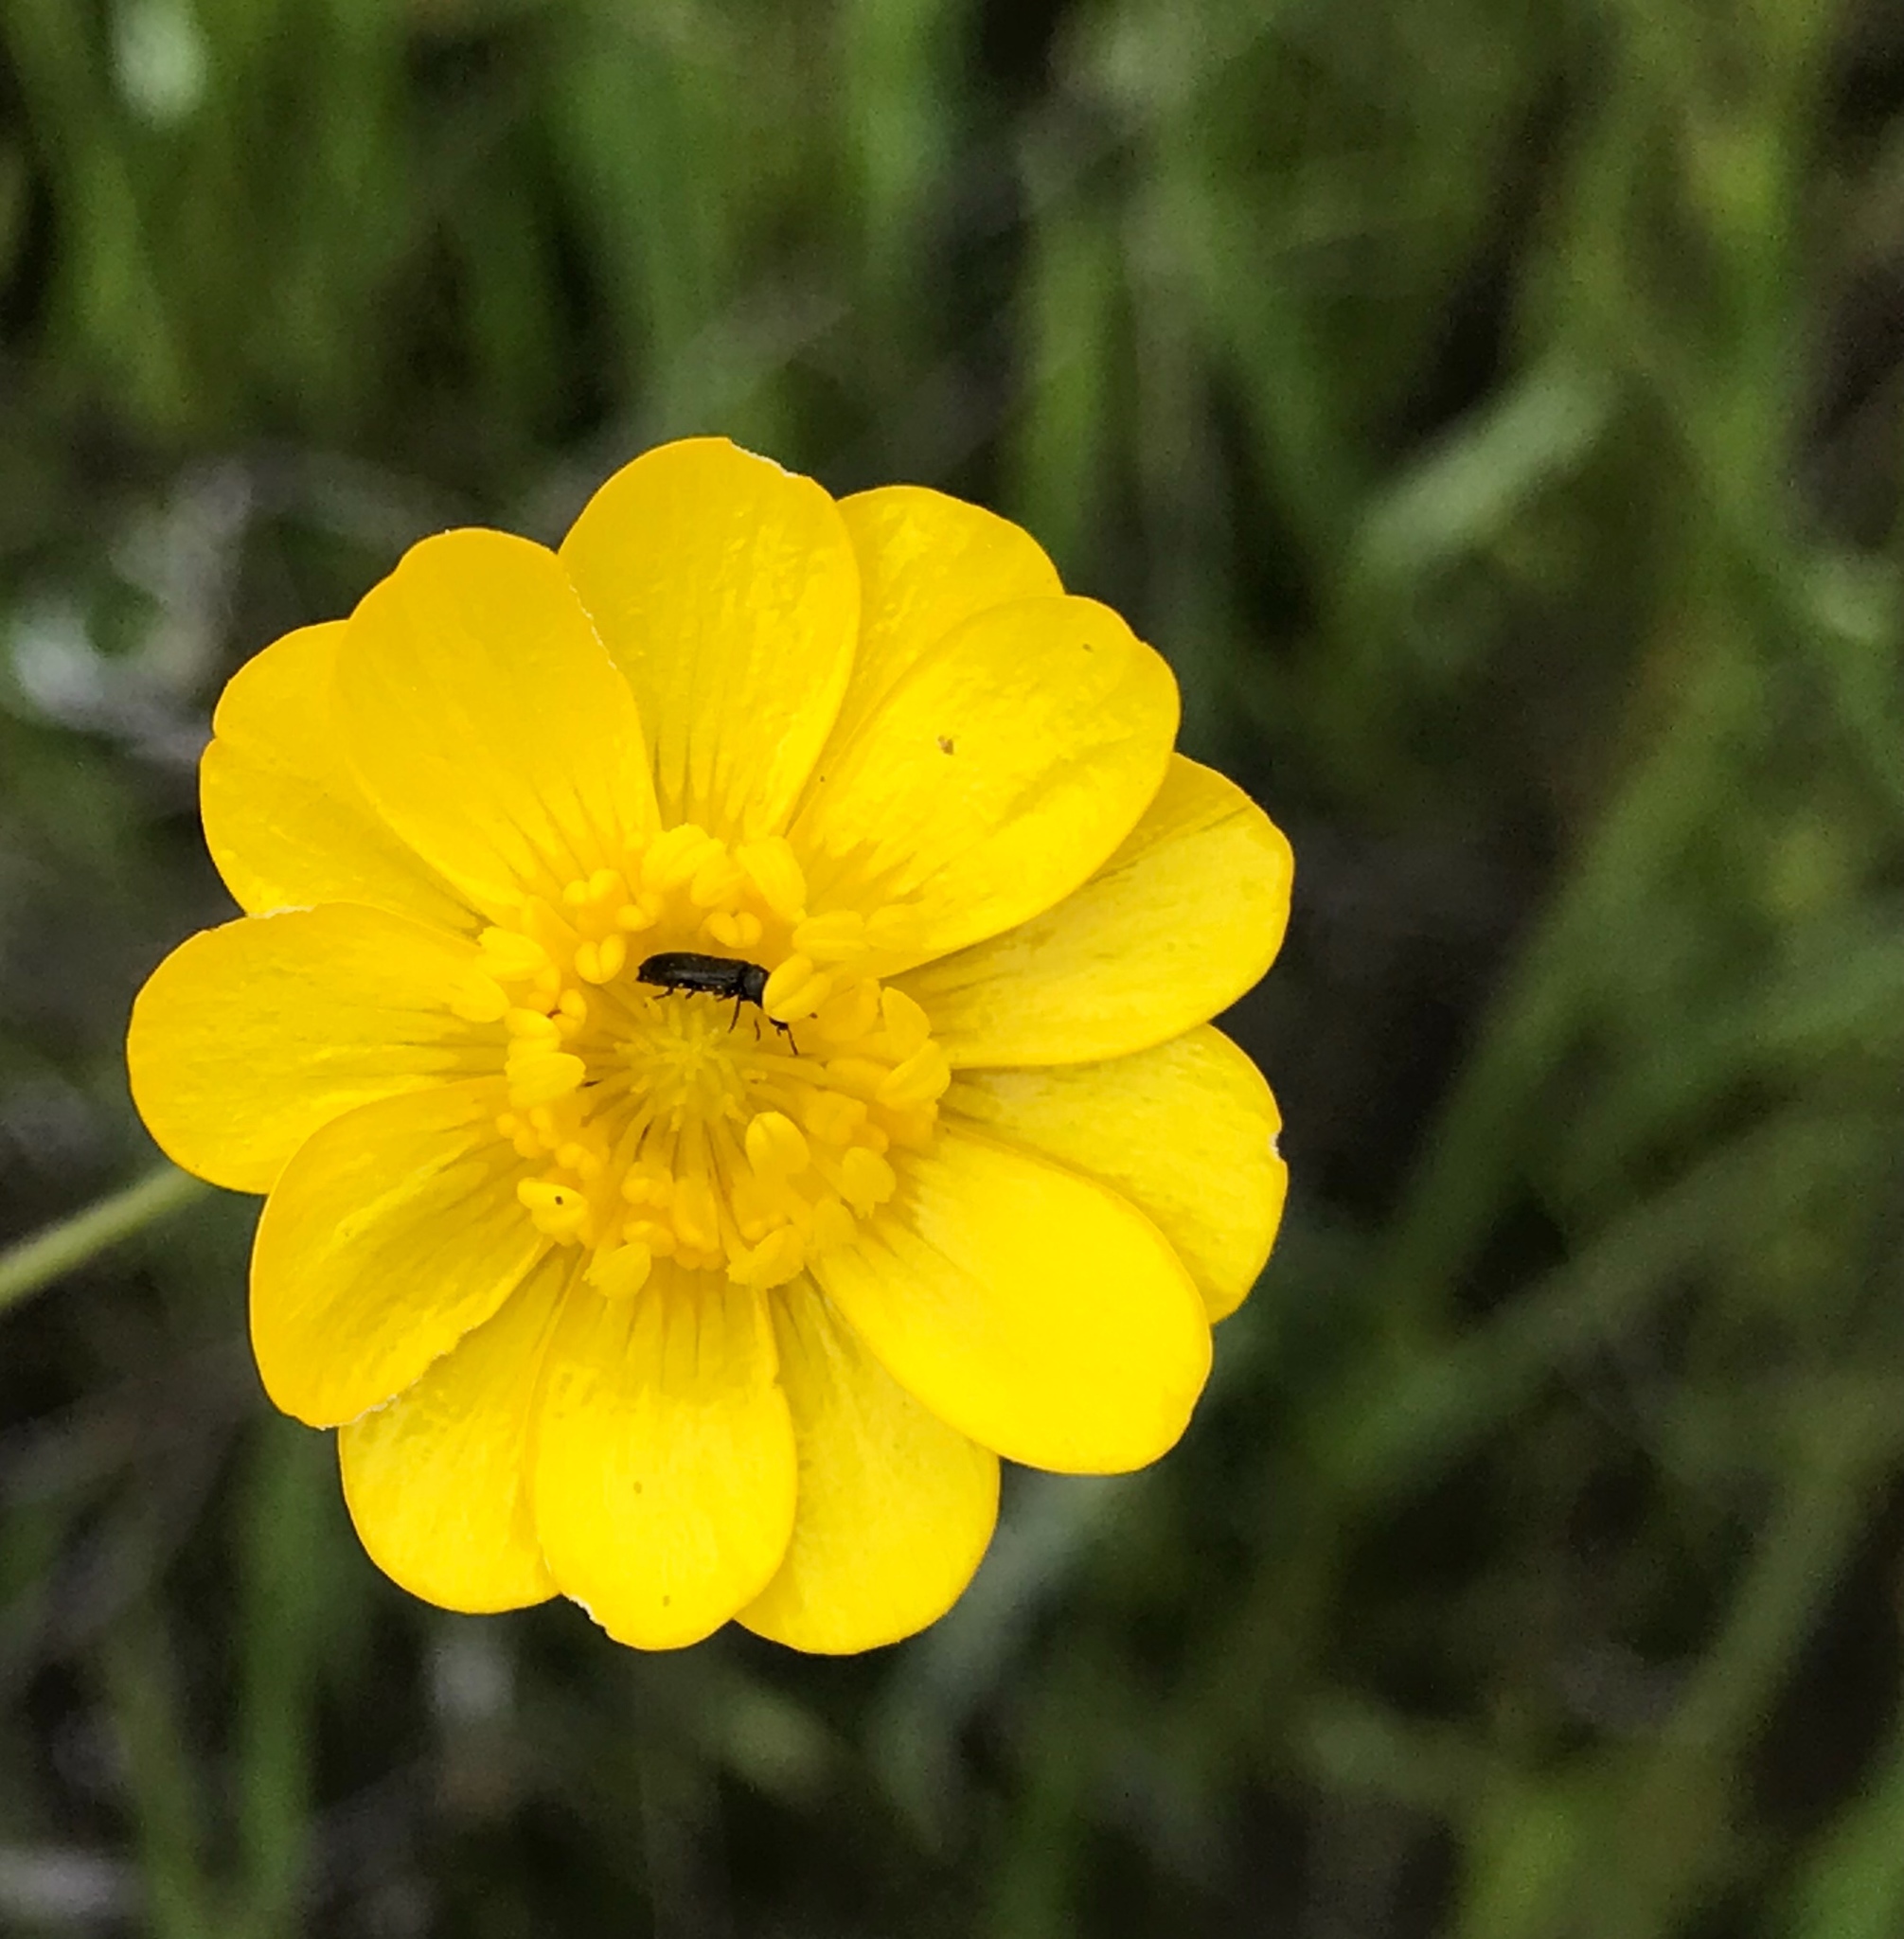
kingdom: Plantae
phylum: Tracheophyta
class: Magnoliopsida
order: Ranunculales
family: Ranunculaceae
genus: Ranunculus
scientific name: Ranunculus californicus
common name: California buttercup
